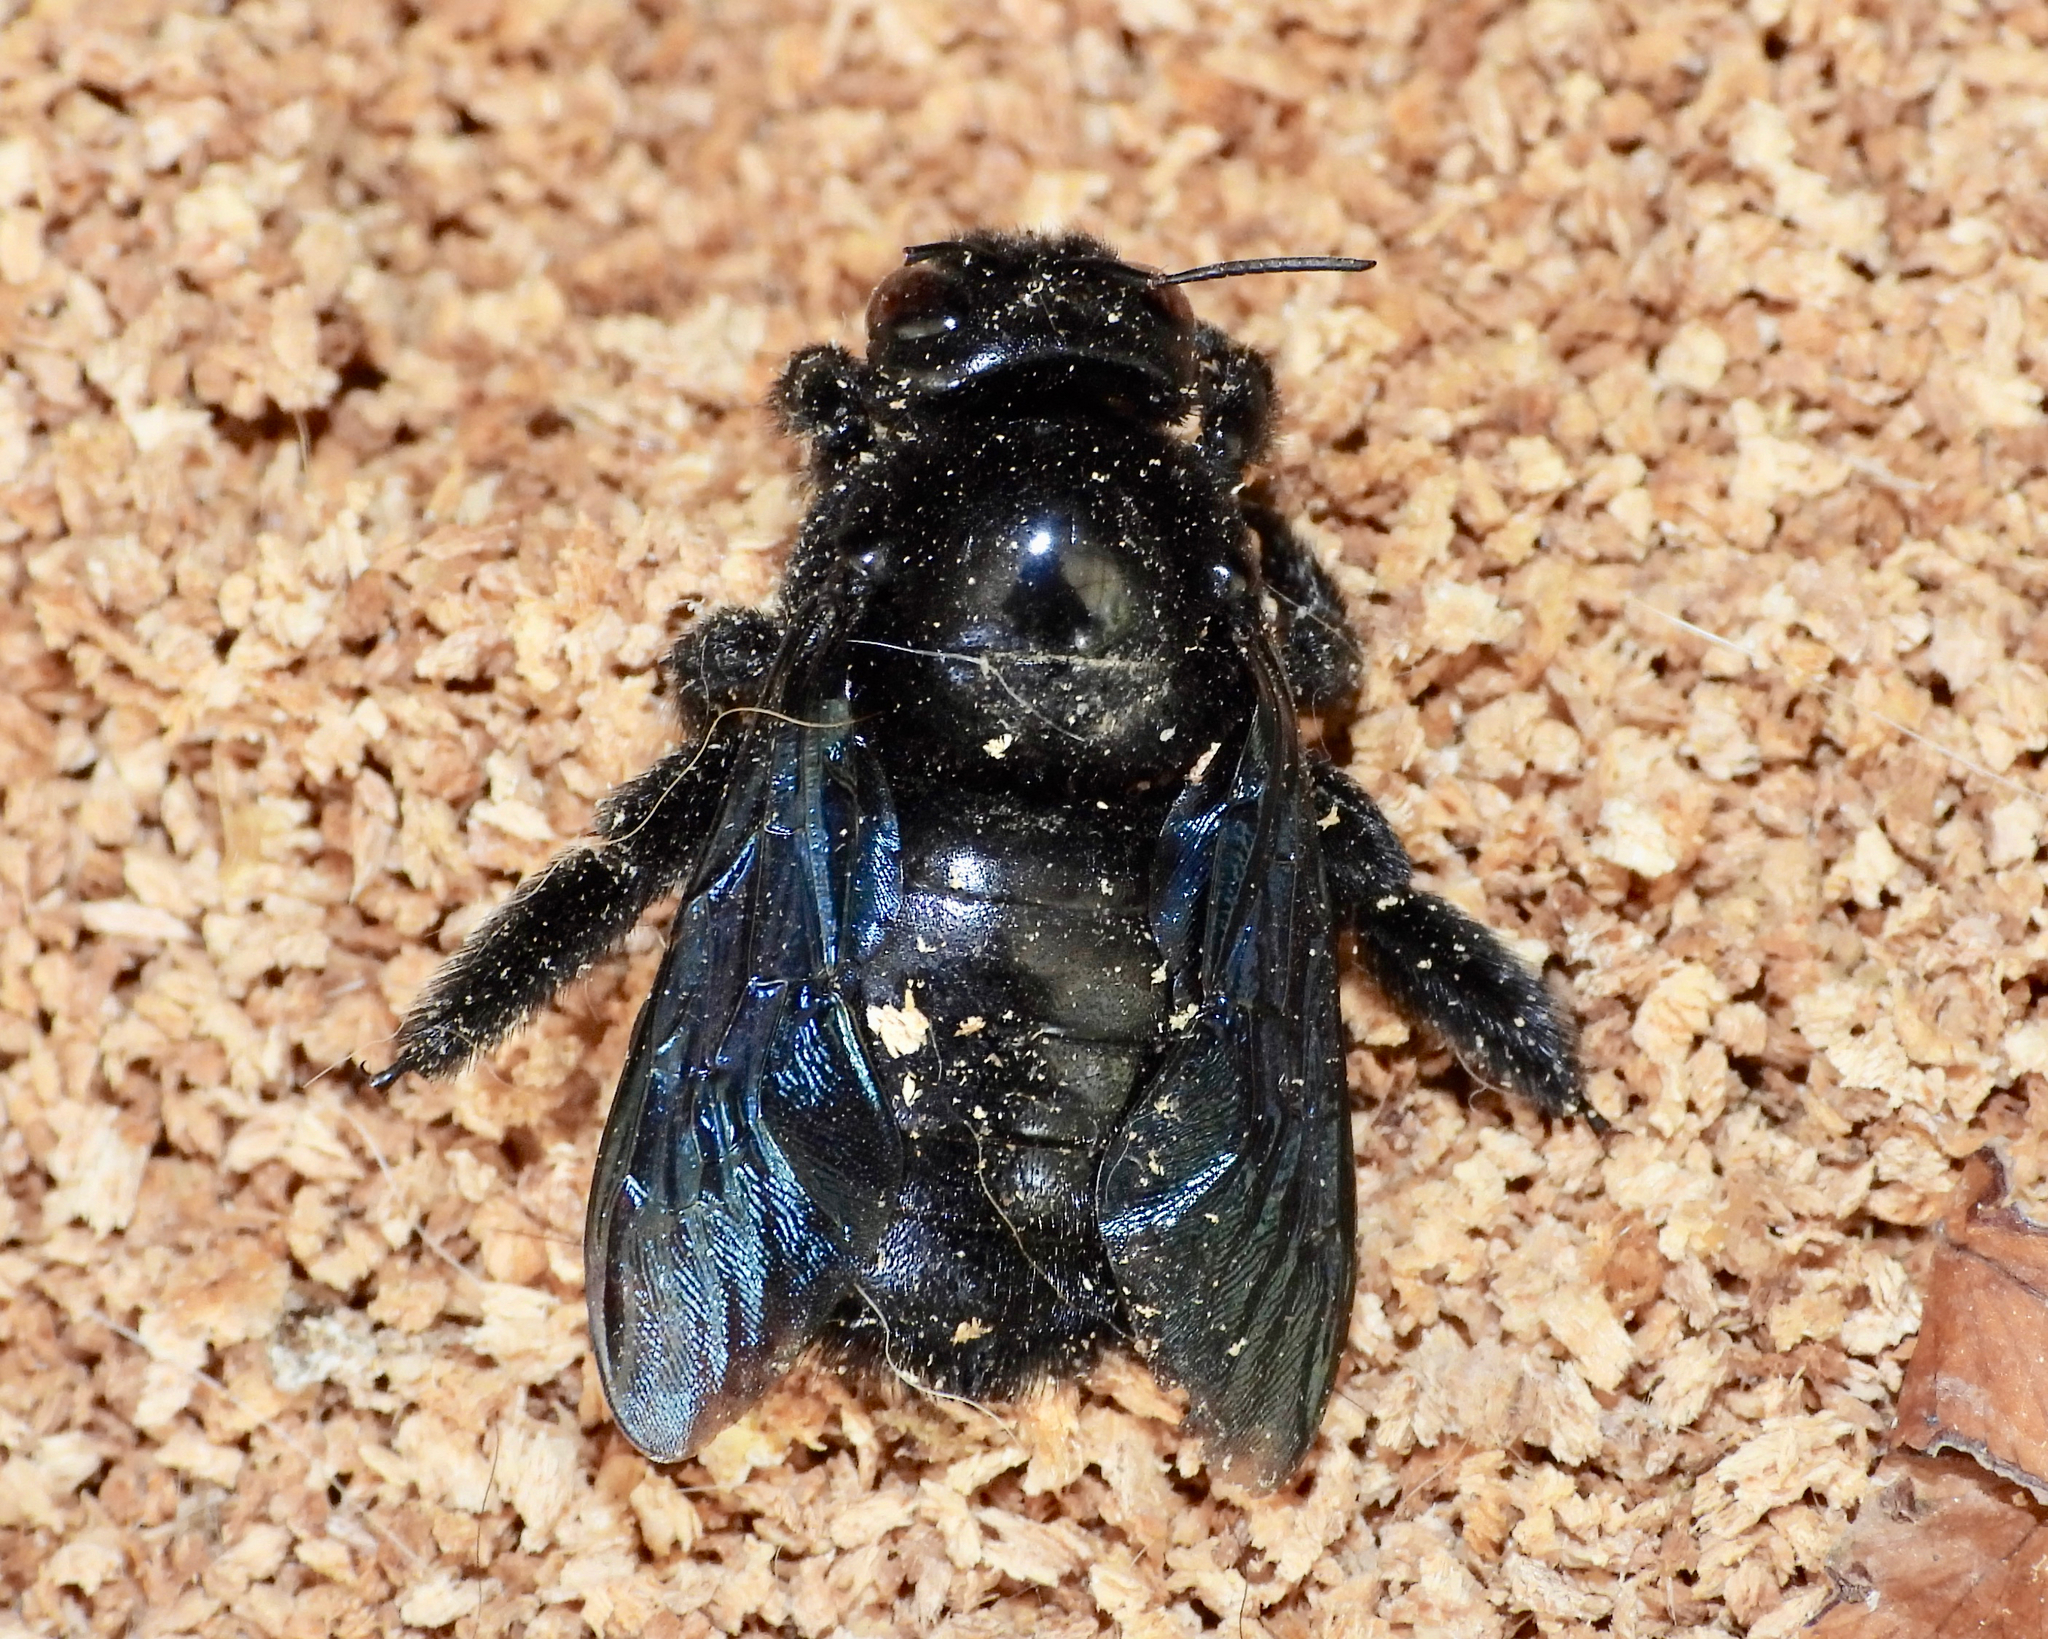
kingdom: Animalia
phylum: Arthropoda
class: Insecta
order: Hymenoptera
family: Apidae
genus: Xylocopa
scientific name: Xylocopa gualanensis
